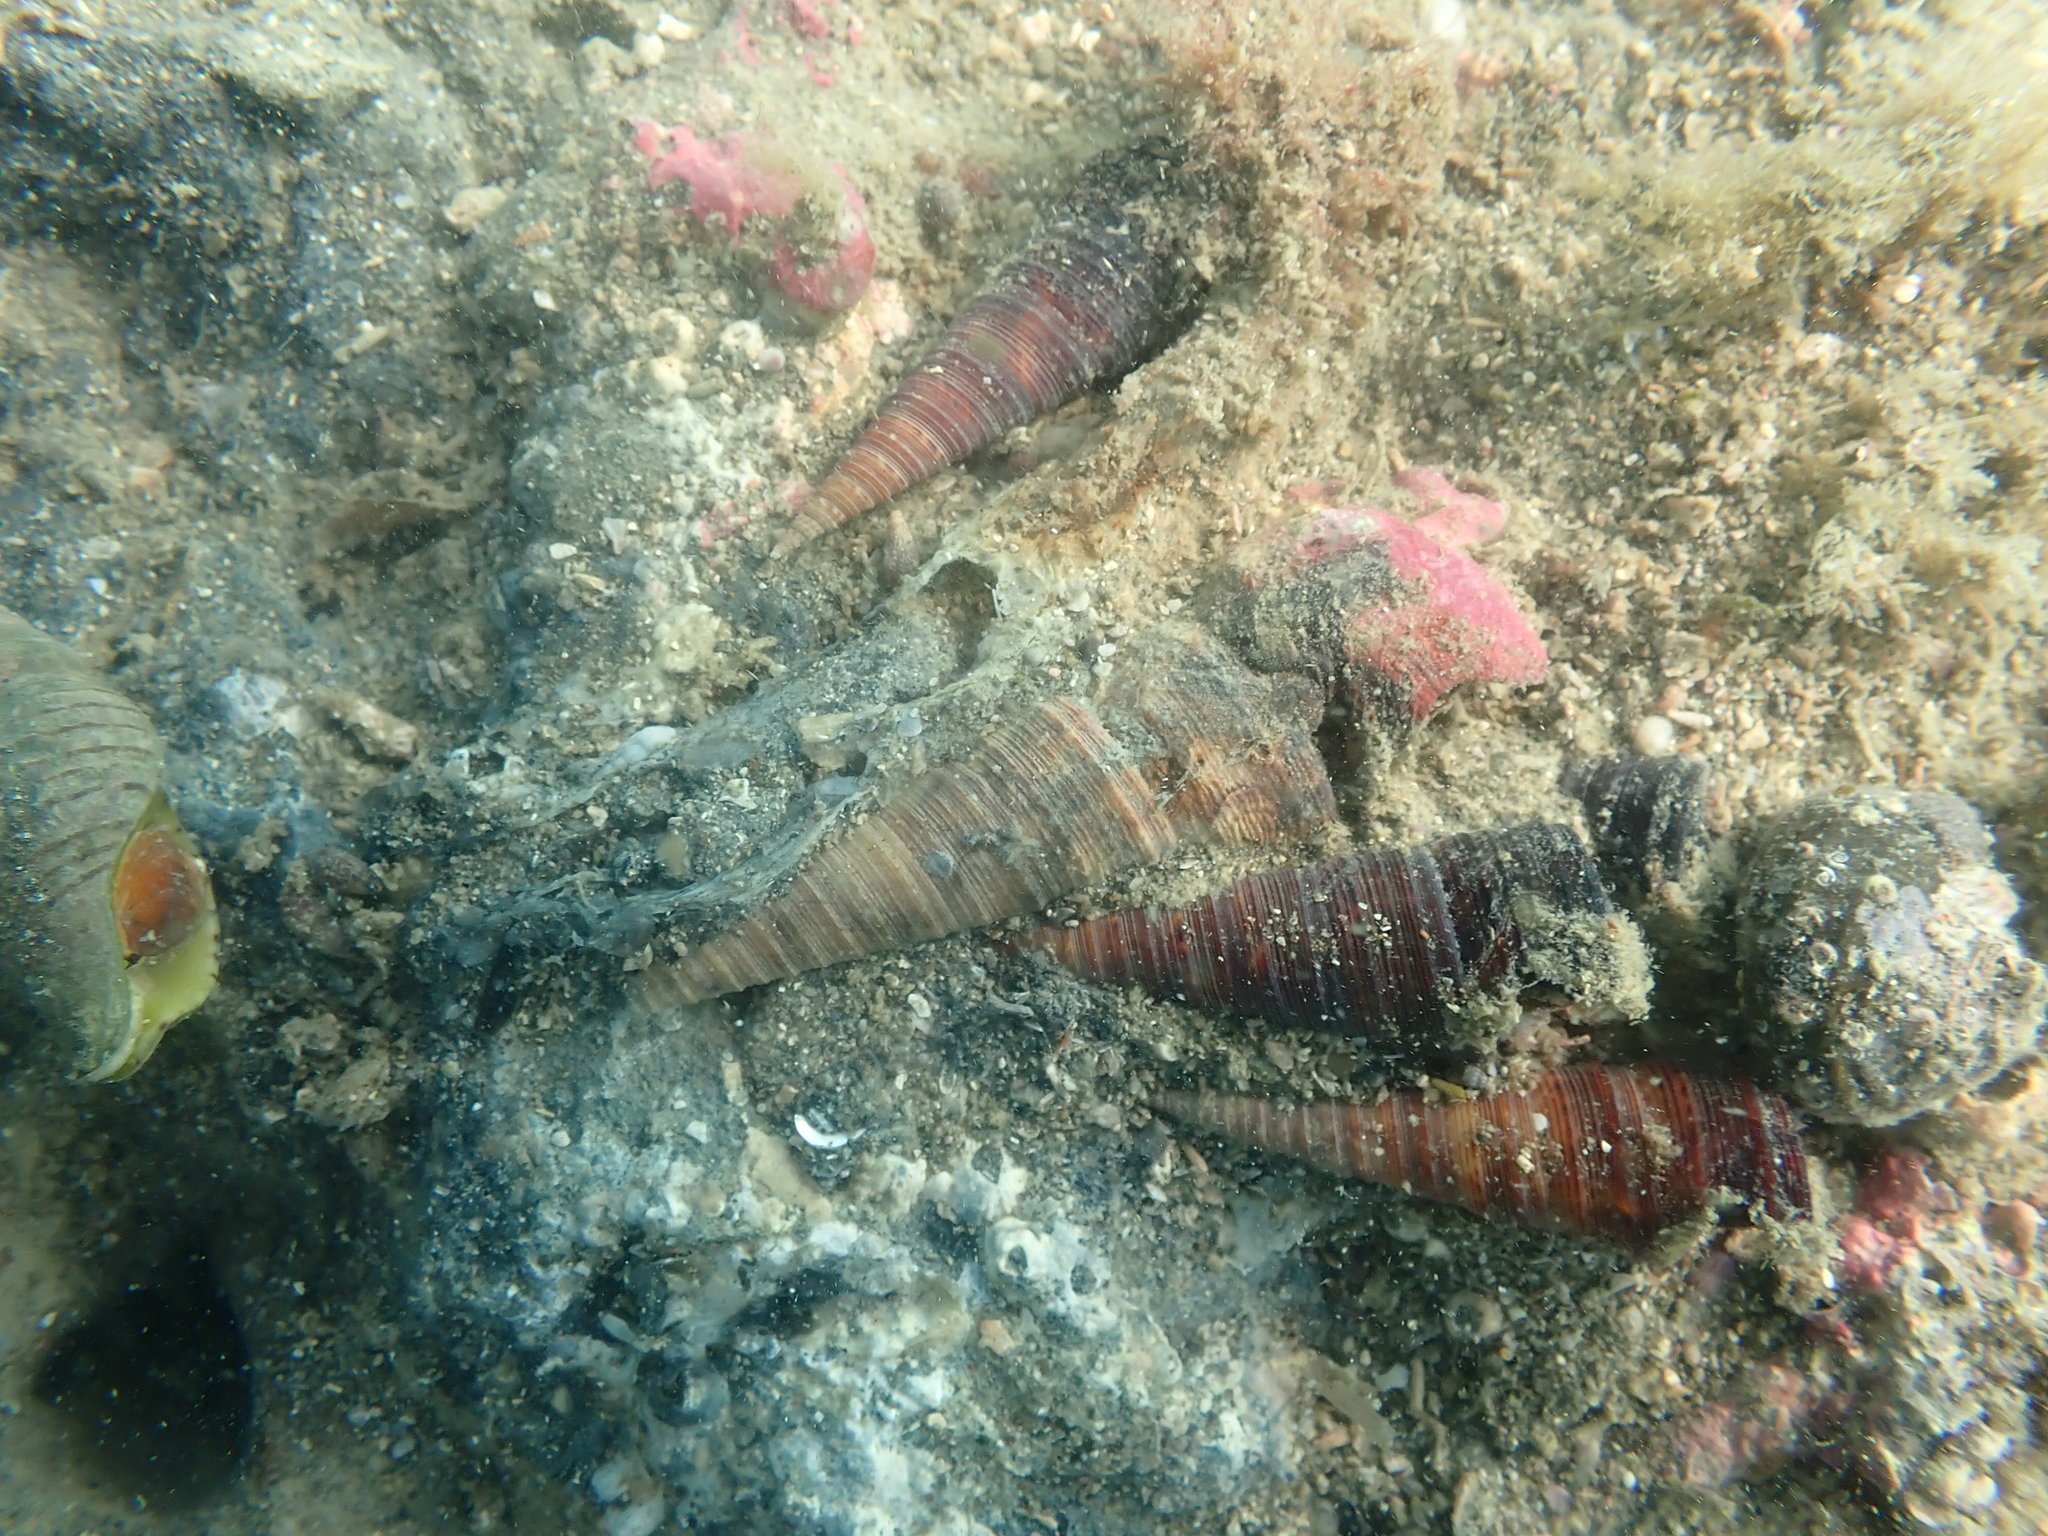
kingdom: Animalia
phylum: Mollusca
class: Gastropoda
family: Turritellidae
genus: Maoricolpus
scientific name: Maoricolpus roseus
